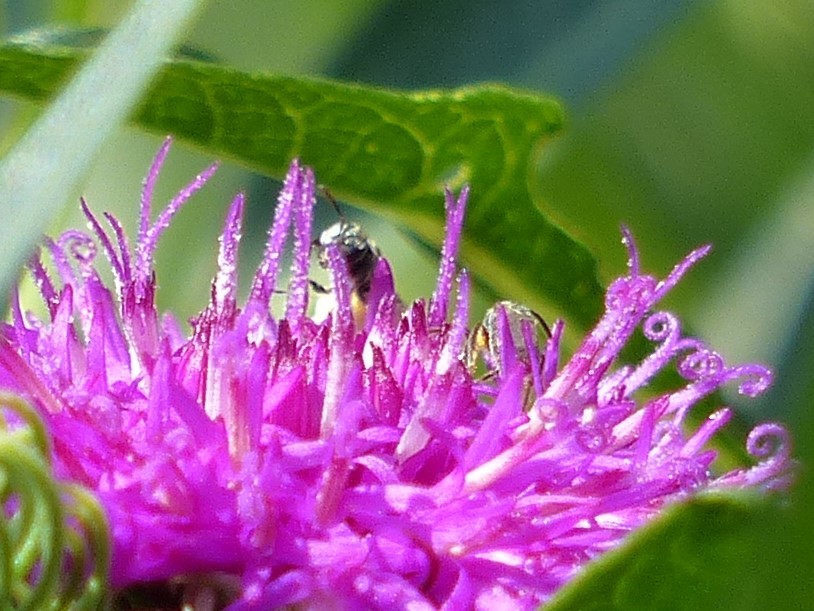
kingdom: Animalia
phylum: Arthropoda
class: Insecta
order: Hymenoptera
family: Halictidae
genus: Dialictus
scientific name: Dialictus
